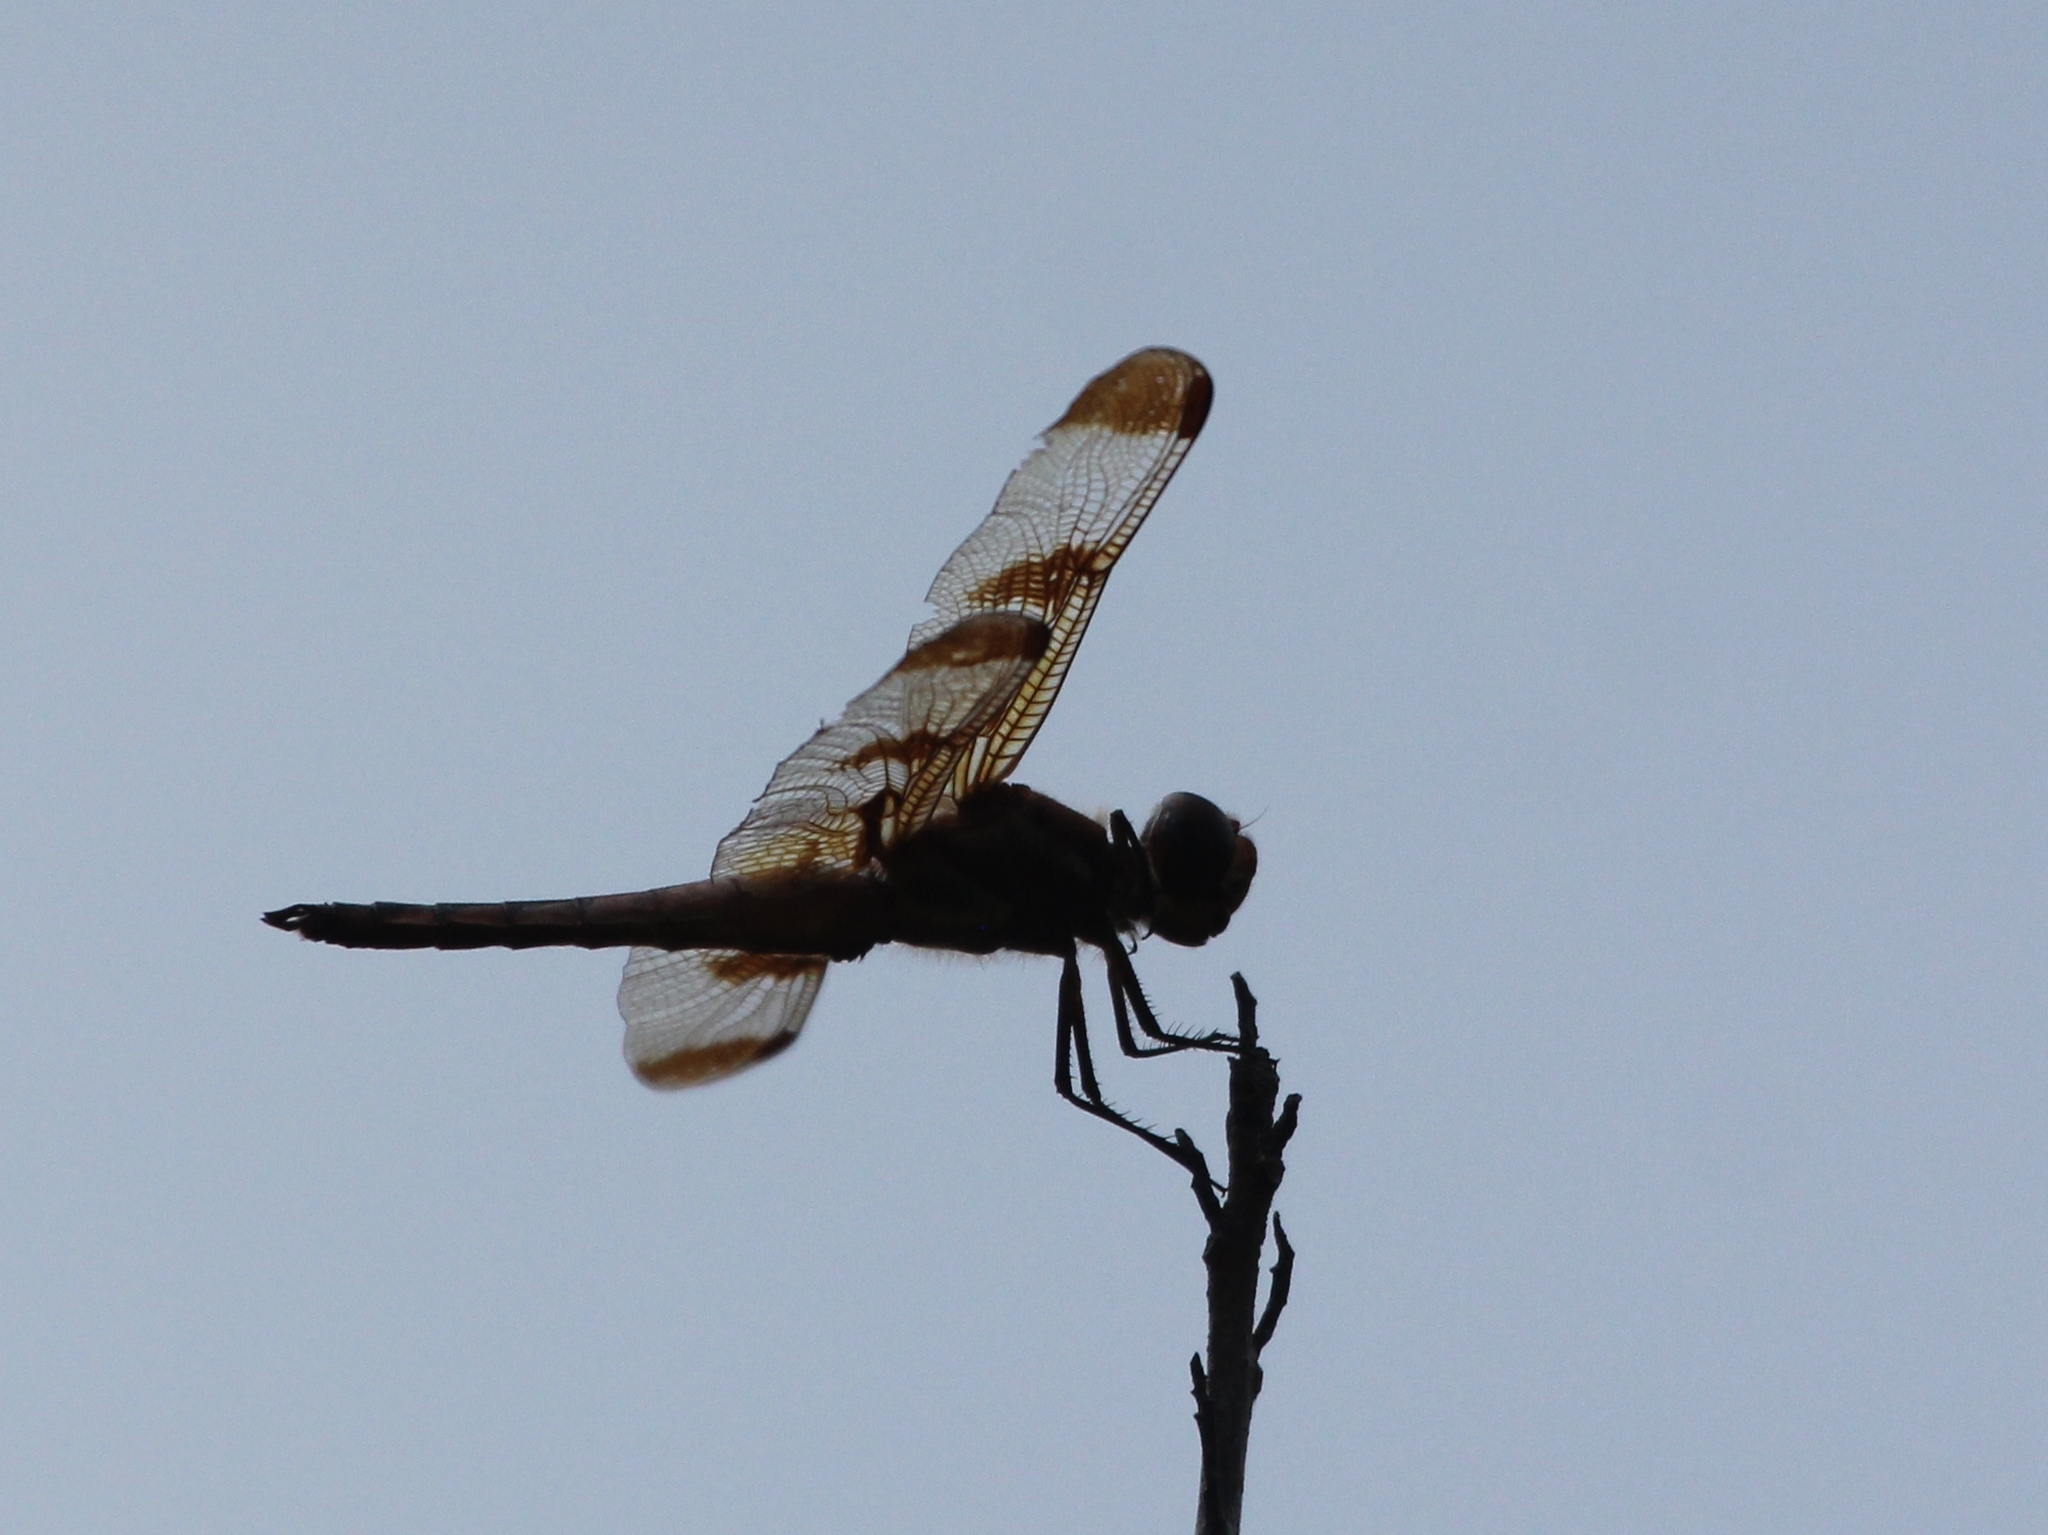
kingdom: Animalia
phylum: Arthropoda
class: Insecta
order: Odonata
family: Libellulidae
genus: Libellula
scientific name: Libellula semifasciata
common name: Painted skimmer
